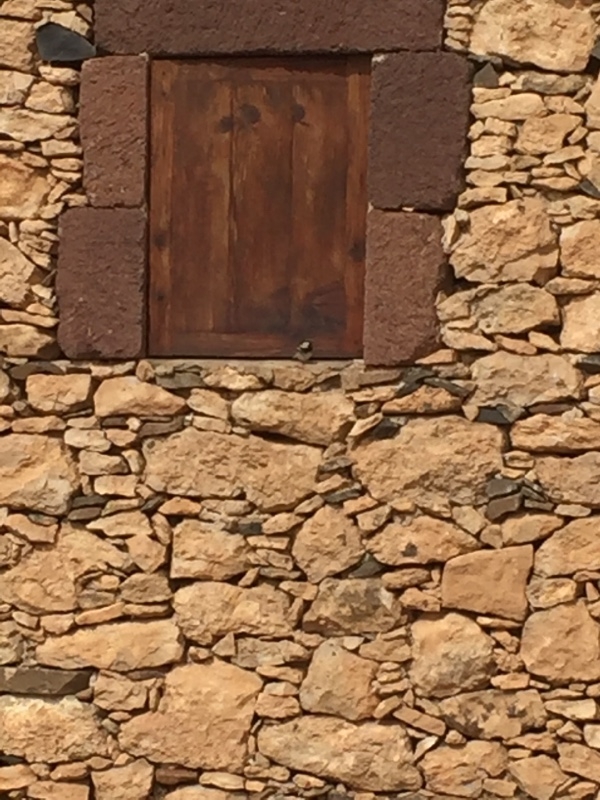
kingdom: Animalia
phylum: Chordata
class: Aves
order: Passeriformes
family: Passeridae
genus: Passer
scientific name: Passer hispaniolensis
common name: Spanish sparrow
